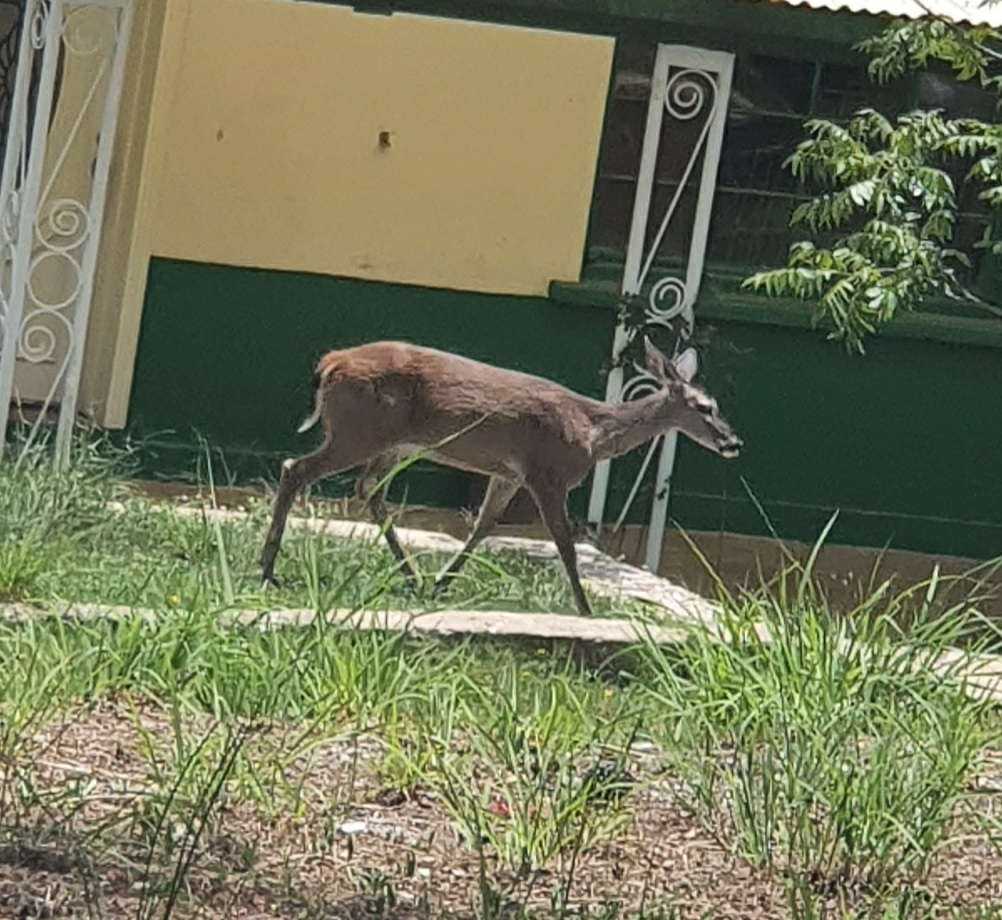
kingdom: Animalia
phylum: Chordata
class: Mammalia
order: Artiodactyla
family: Cervidae
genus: Odocoileus
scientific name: Odocoileus virginianus
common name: White-tailed deer
